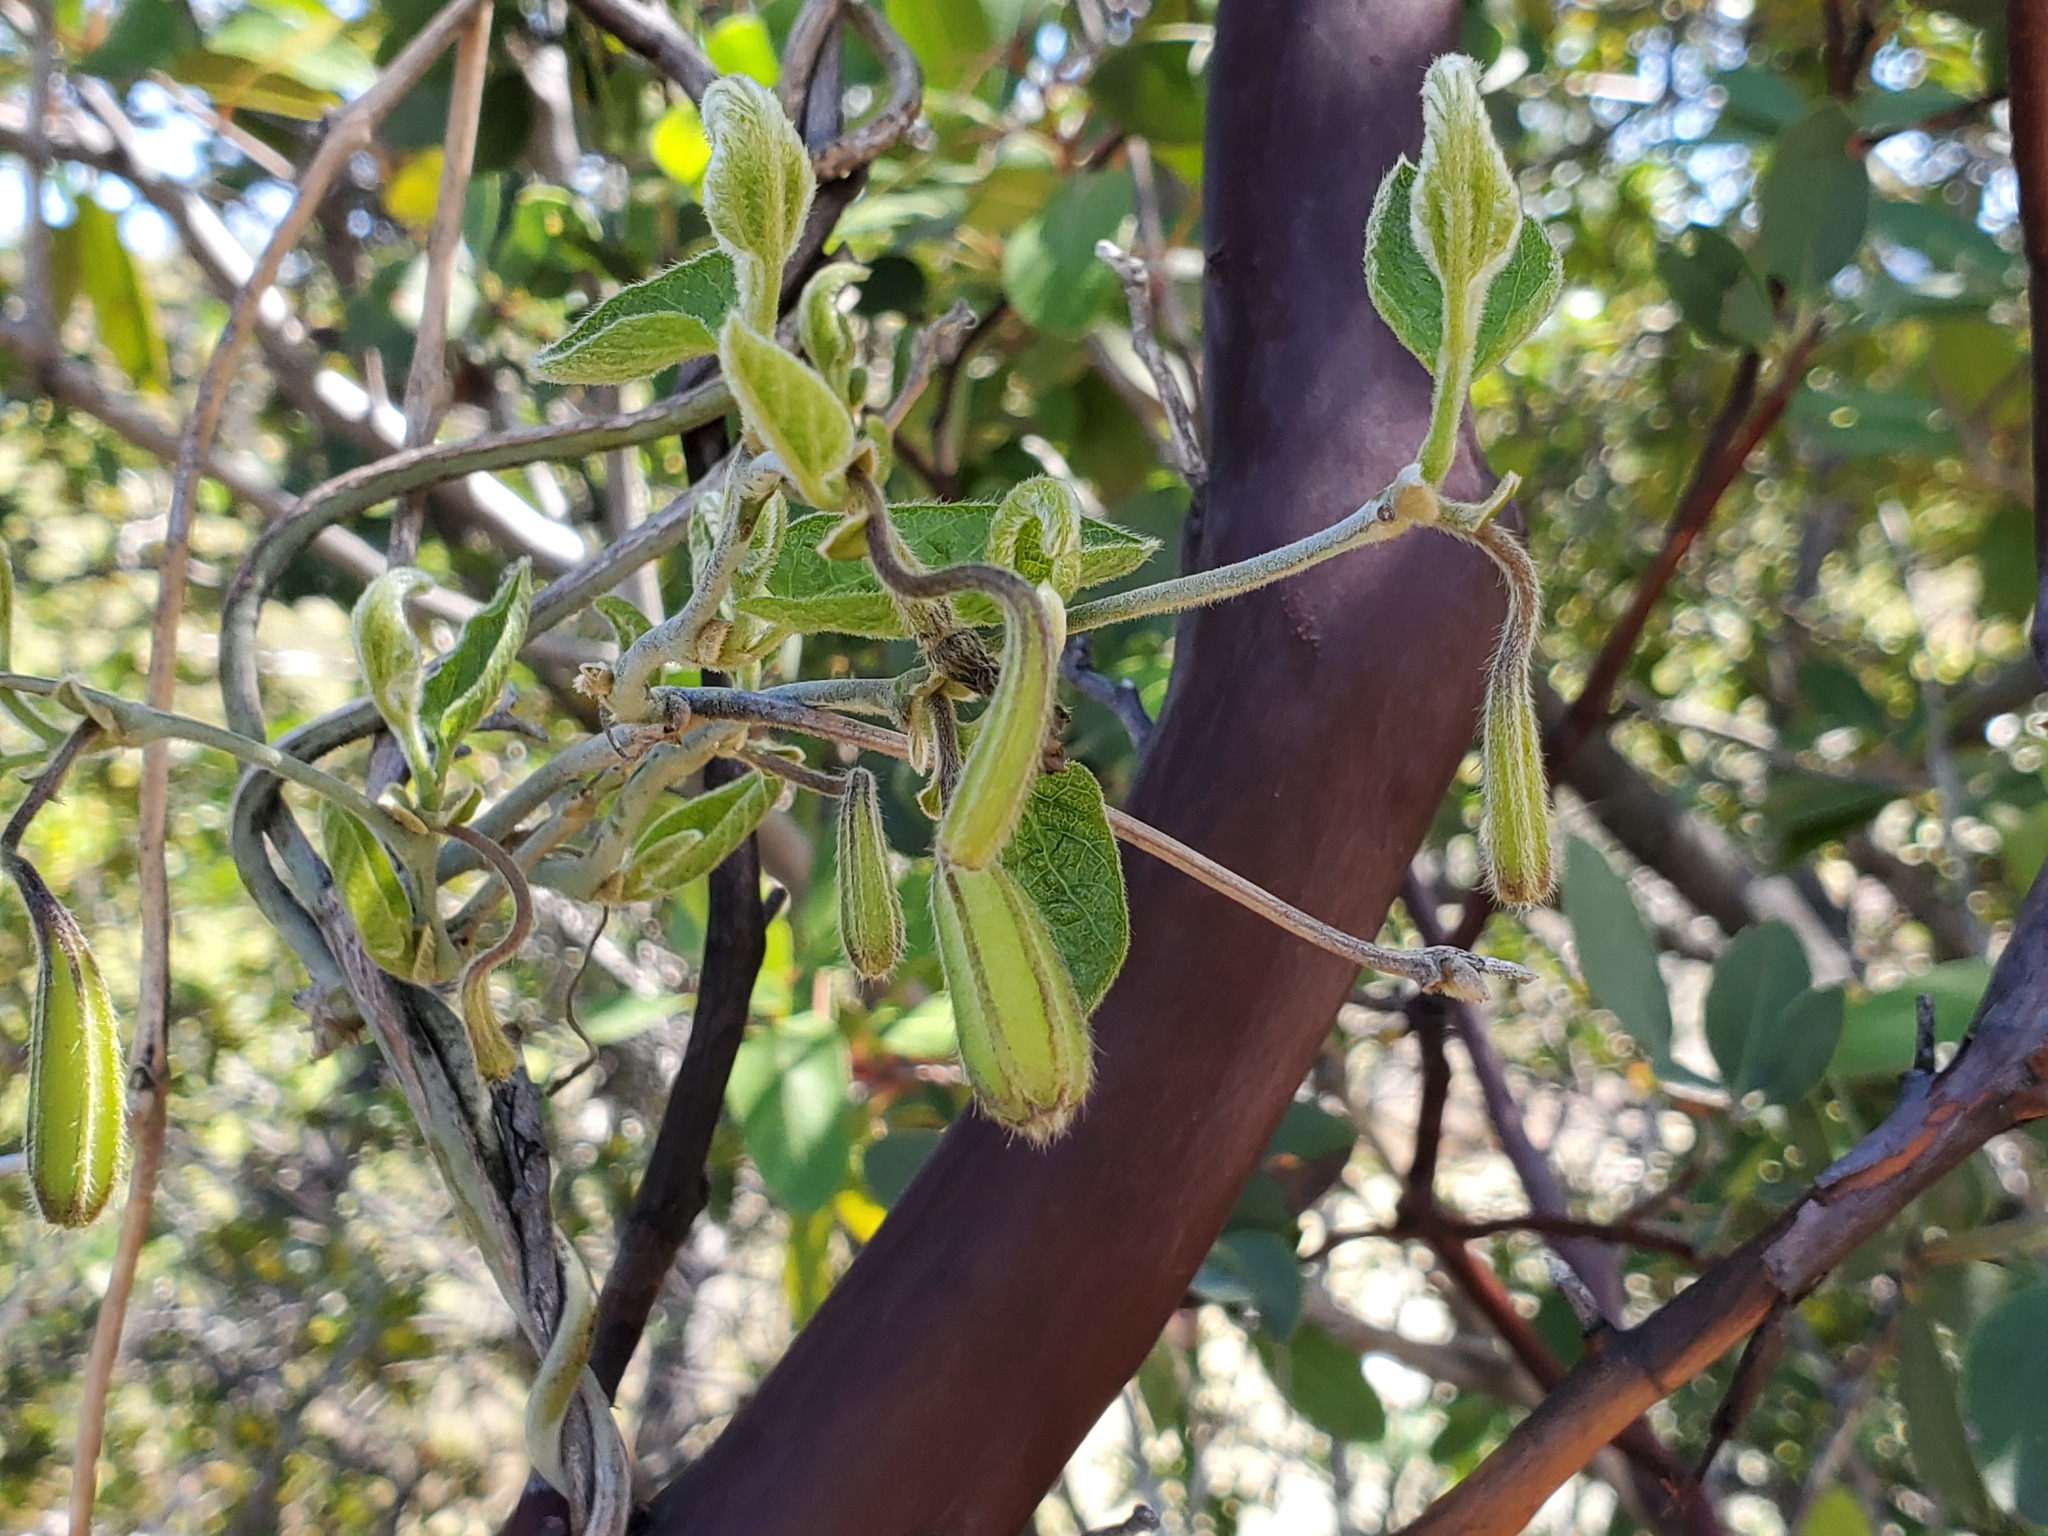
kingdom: Plantae
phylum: Tracheophyta
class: Magnoliopsida
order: Piperales
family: Aristolochiaceae
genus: Isotrema
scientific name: Isotrema californicum
